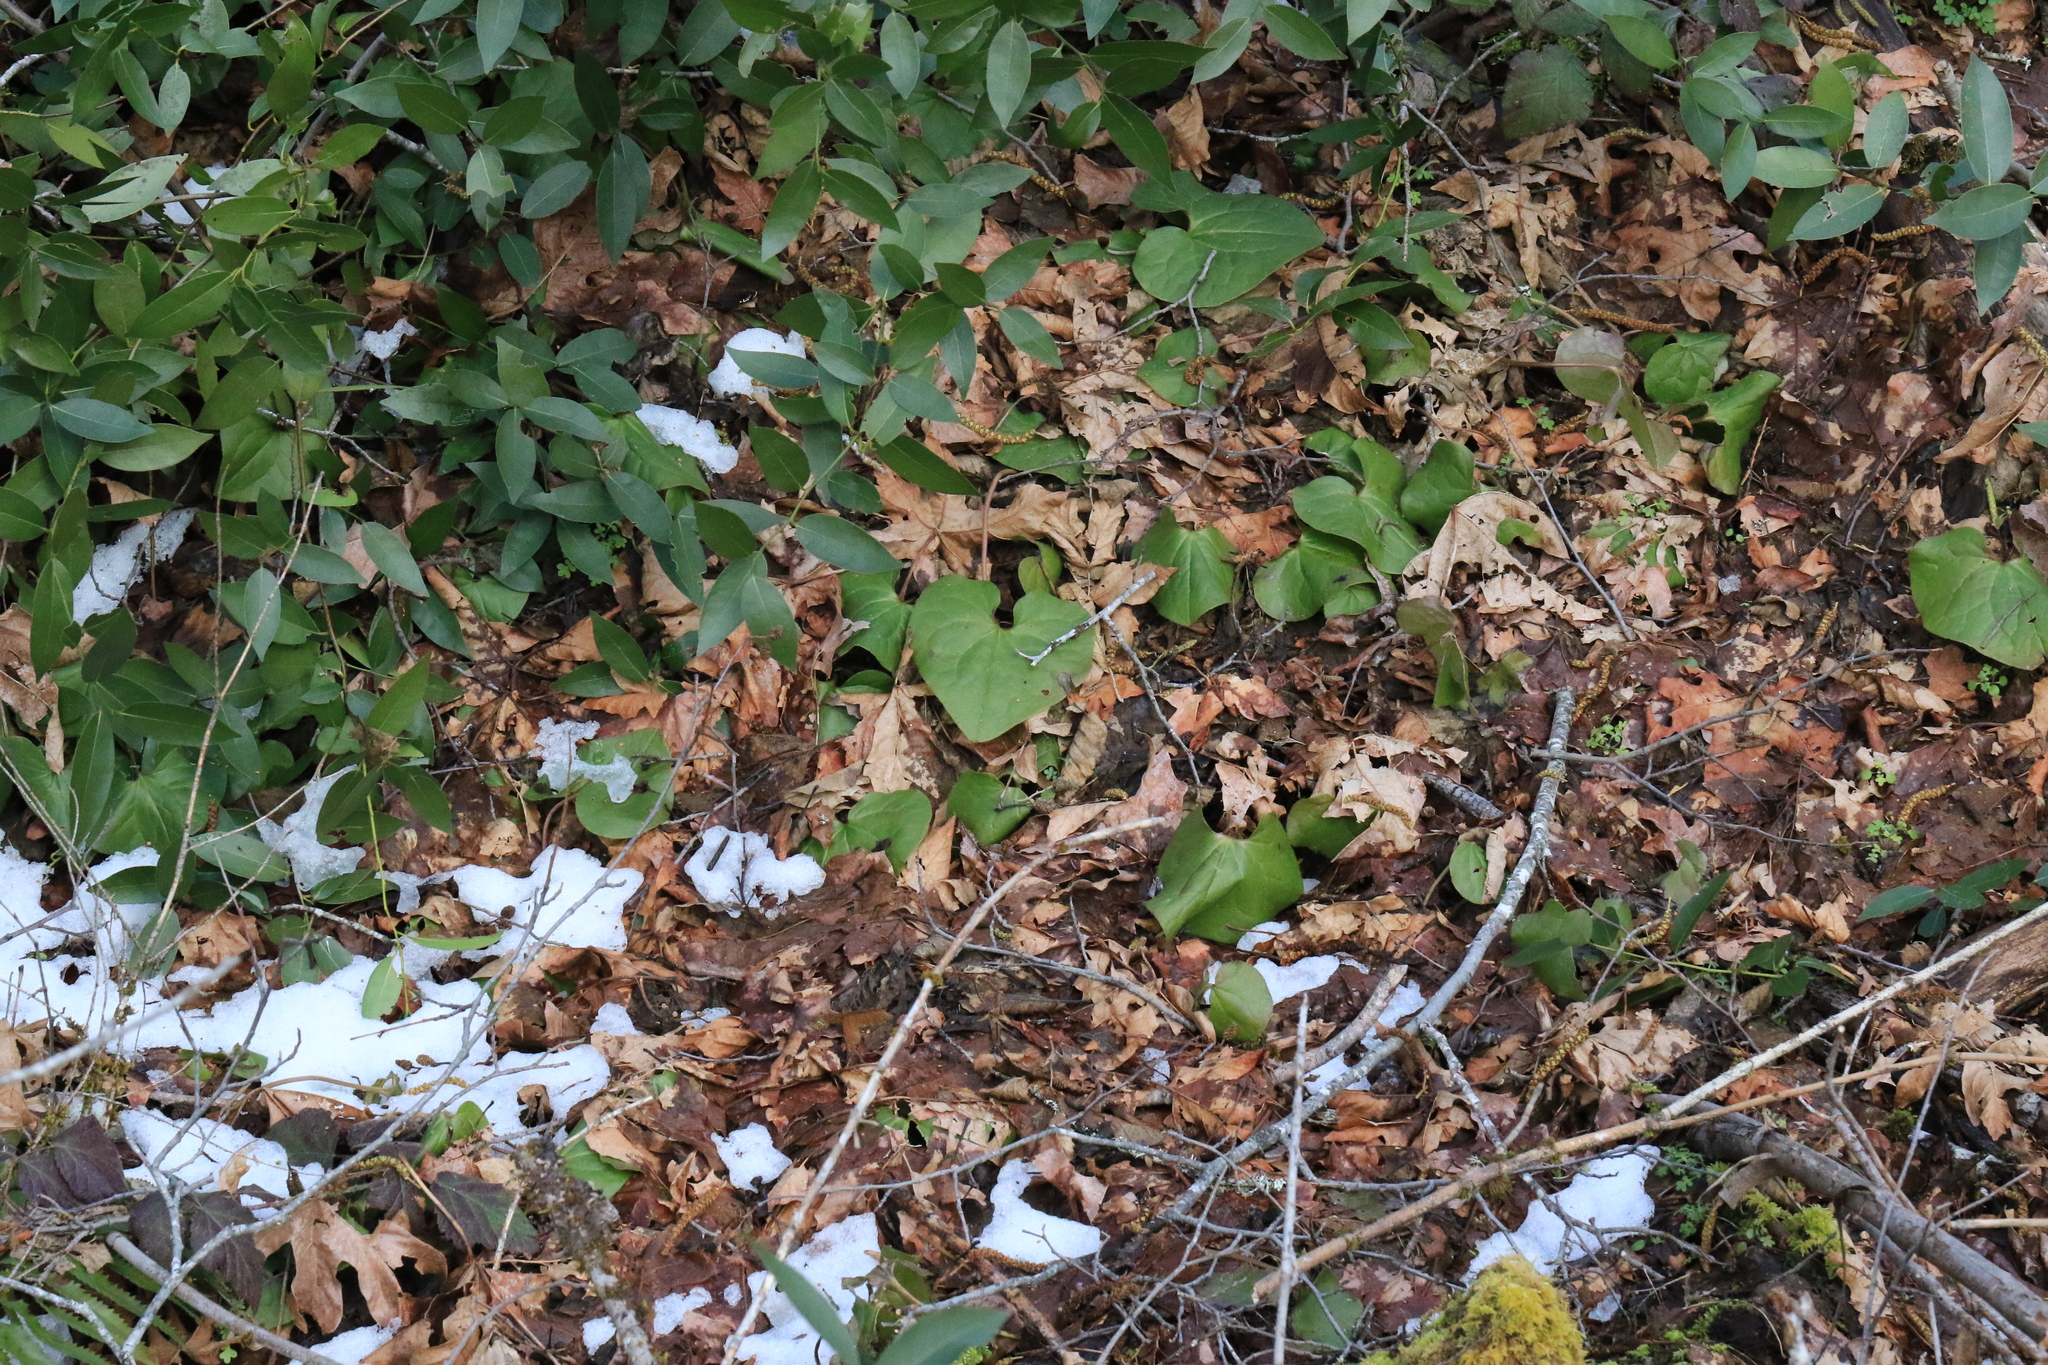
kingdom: Plantae
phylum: Tracheophyta
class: Magnoliopsida
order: Piperales
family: Aristolochiaceae
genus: Asarum
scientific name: Asarum caudatum
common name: Wild ginger
